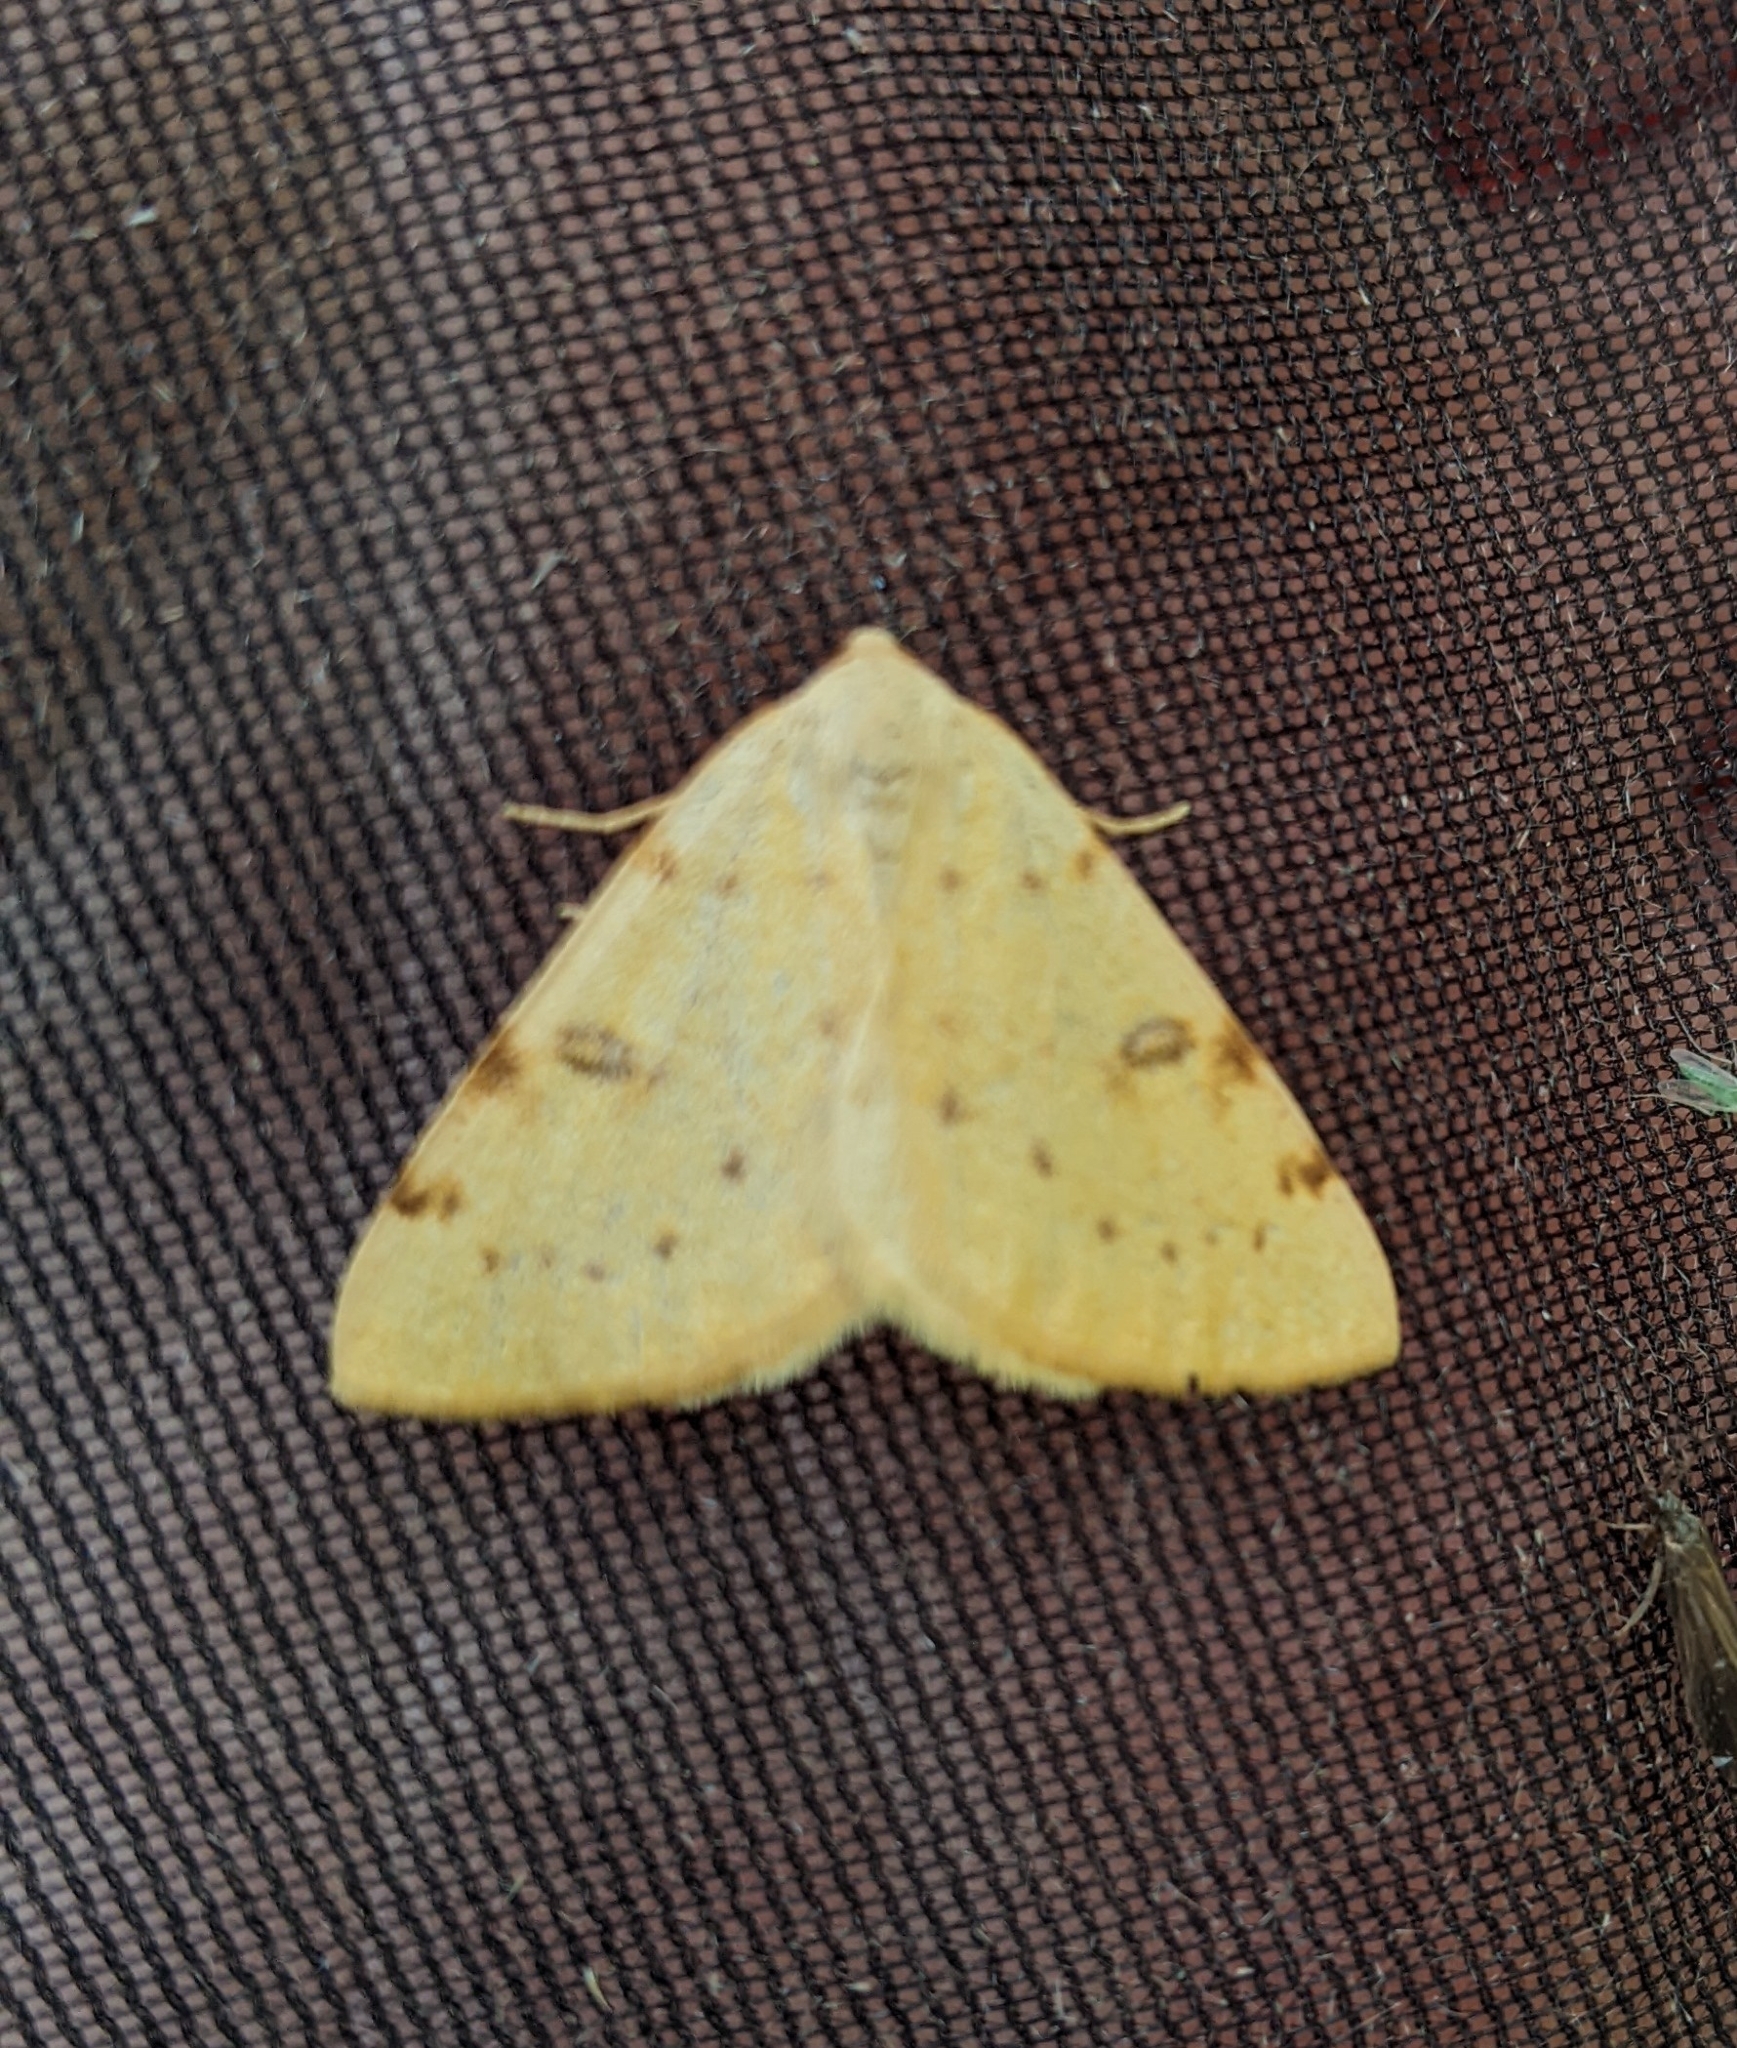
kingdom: Animalia
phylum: Arthropoda
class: Insecta
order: Lepidoptera
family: Geometridae
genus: Hesperumia
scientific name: Hesperumia sulphuraria
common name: Sulphur moth
